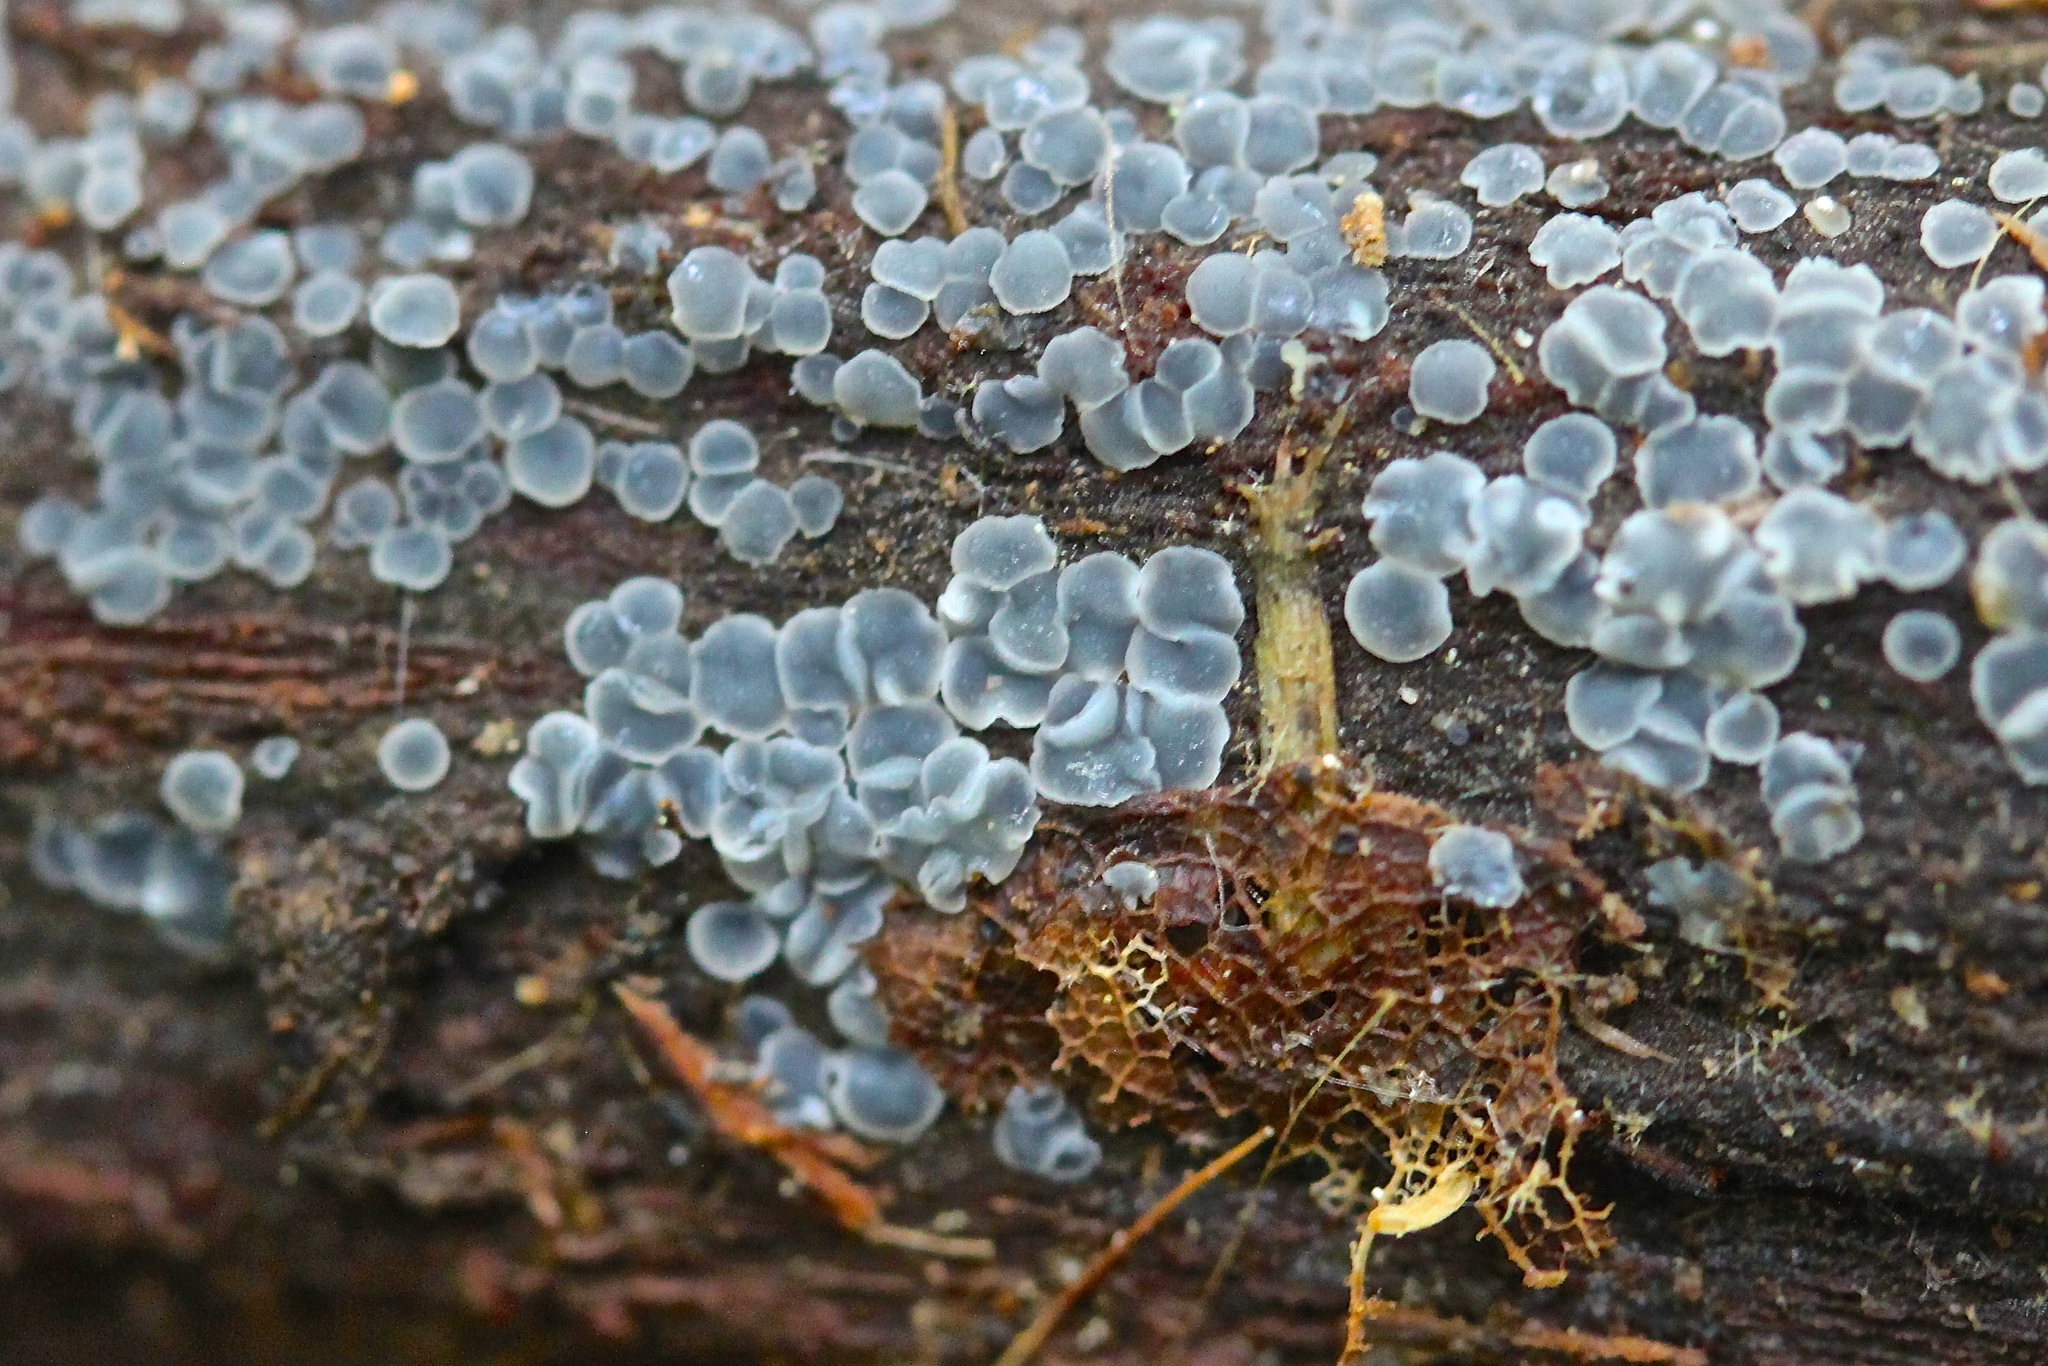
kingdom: Fungi
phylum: Ascomycota
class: Leotiomycetes
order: Helotiales
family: Mollisiaceae
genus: Mollisia
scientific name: Mollisia cinerea
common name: Common grey disco
